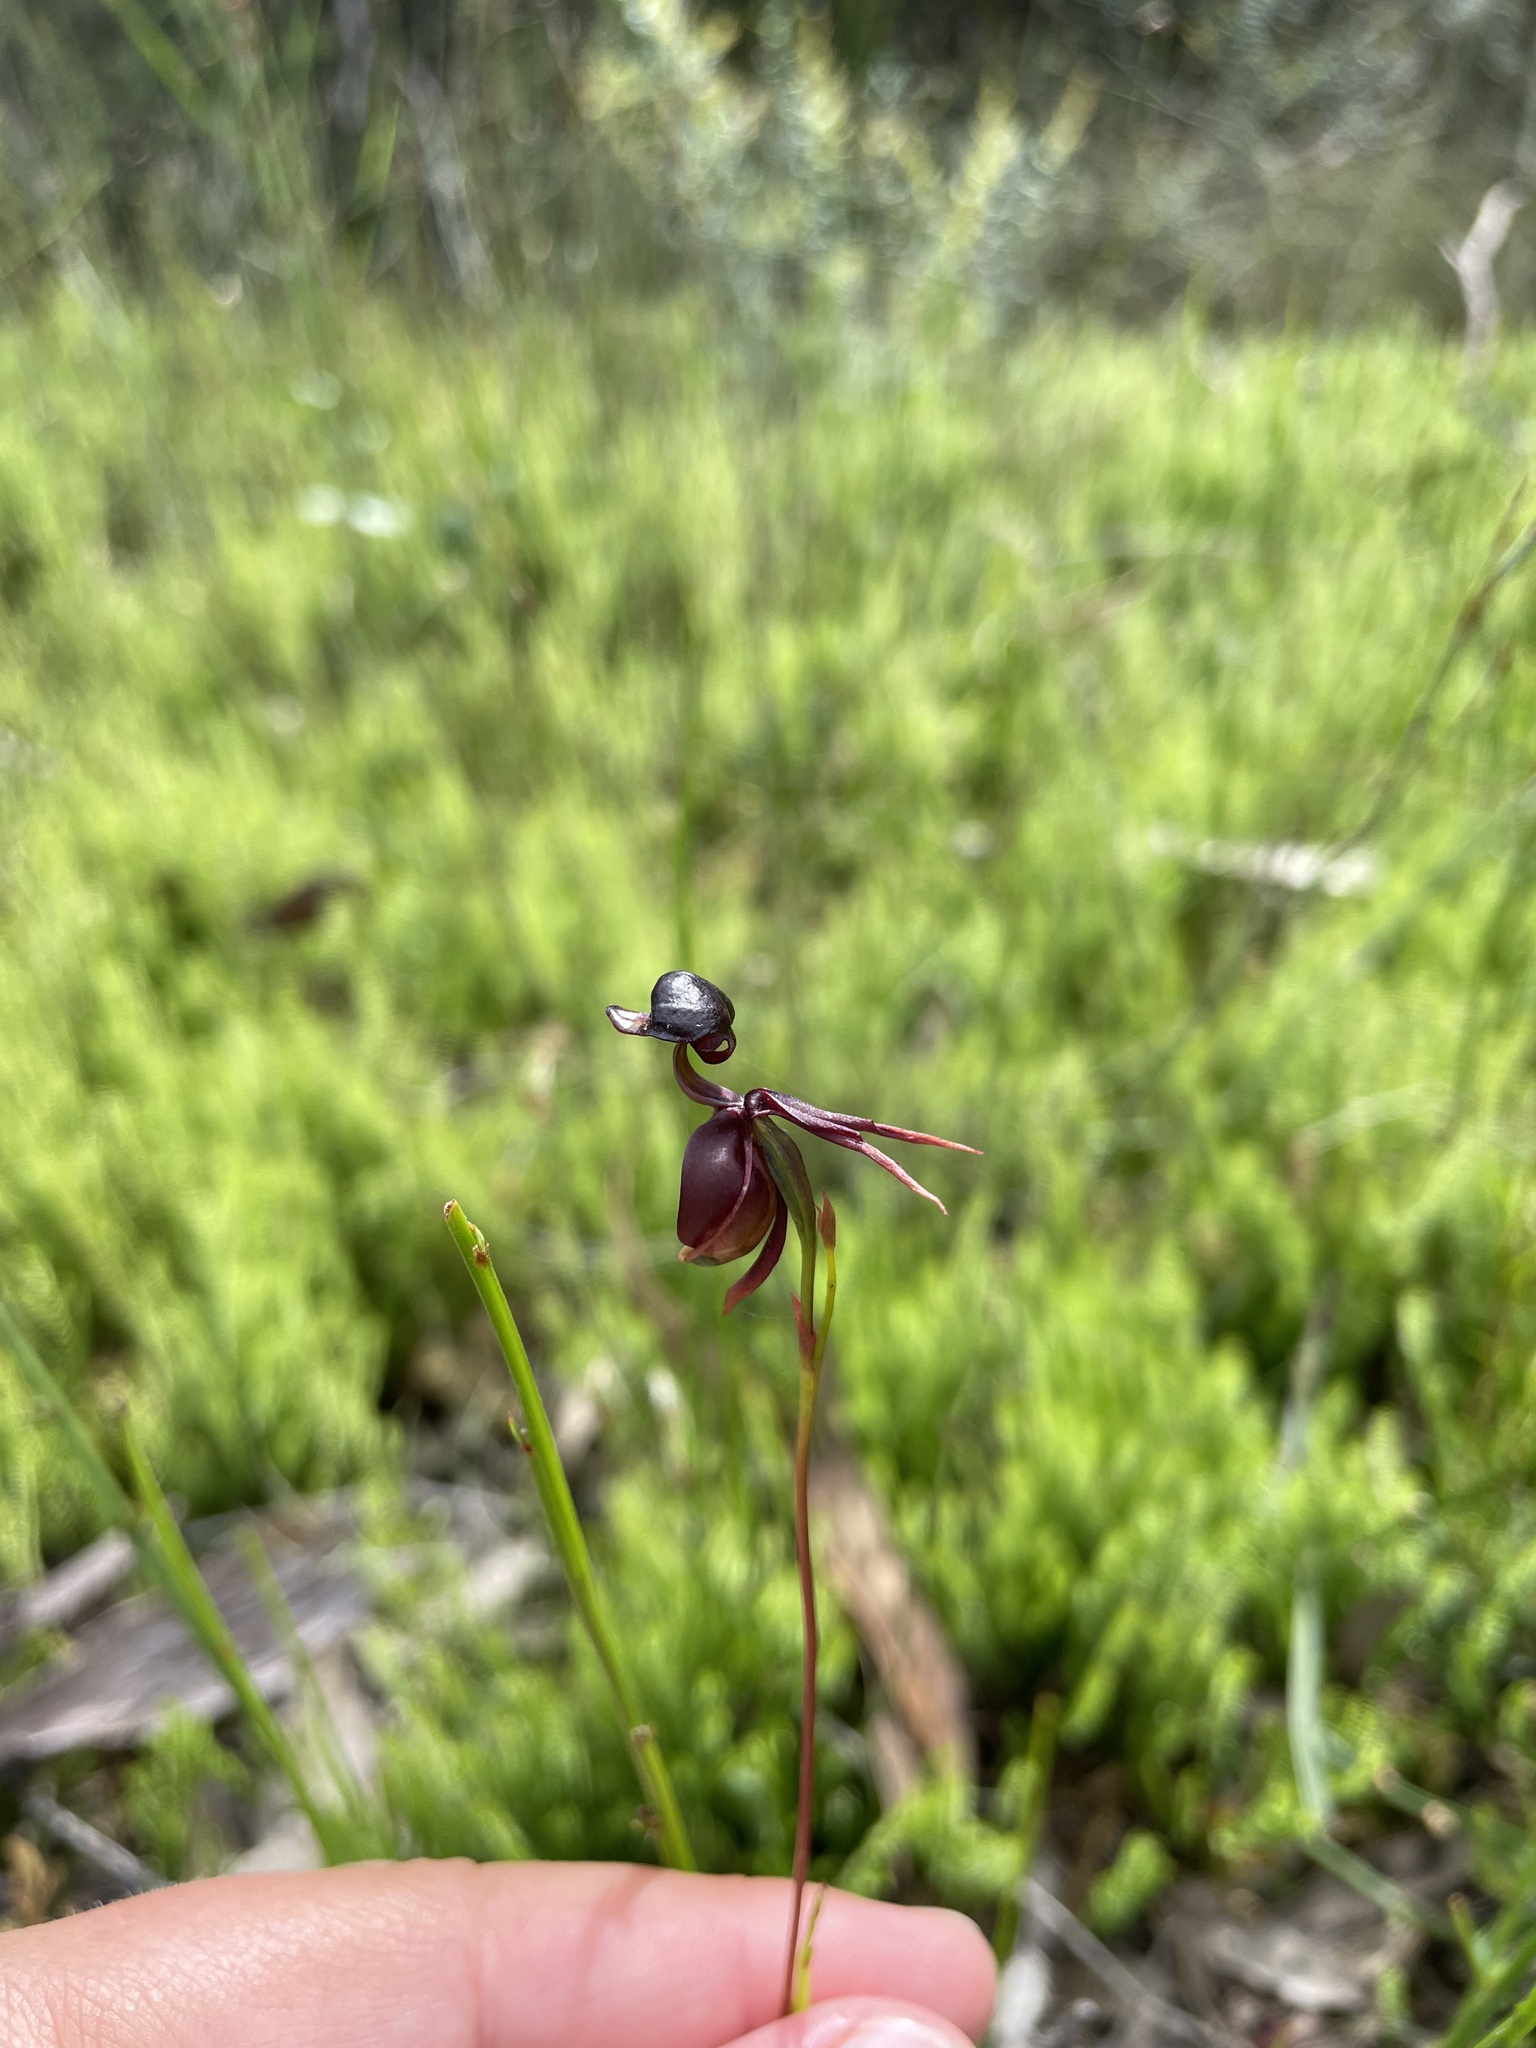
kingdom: Plantae
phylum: Tracheophyta
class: Liliopsida
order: Asparagales
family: Orchidaceae
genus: Caleana
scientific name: Caleana major
